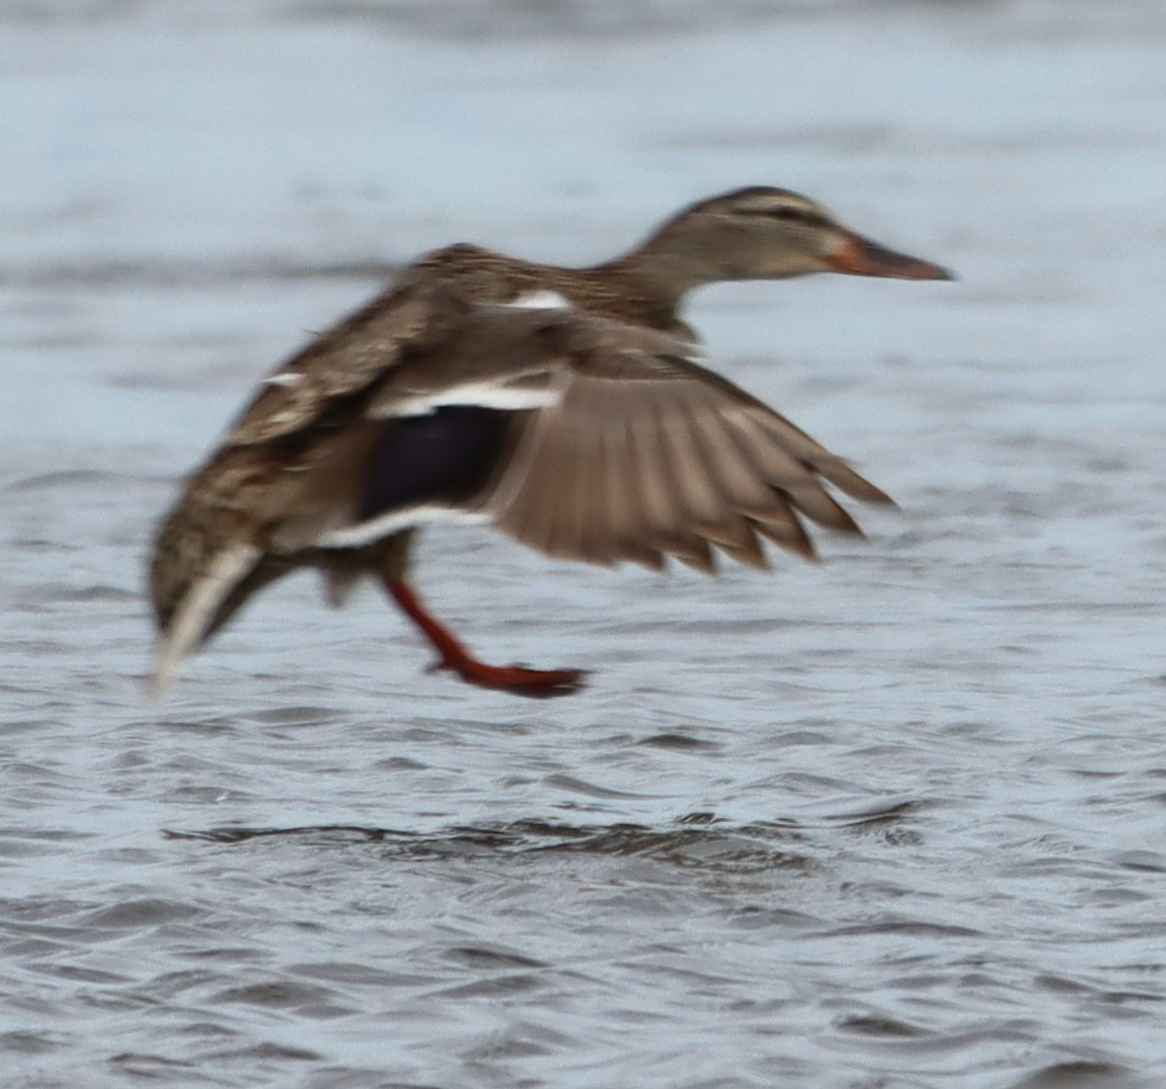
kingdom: Animalia
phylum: Chordata
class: Aves
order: Anseriformes
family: Anatidae
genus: Anas
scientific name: Anas platyrhynchos
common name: Mallard
